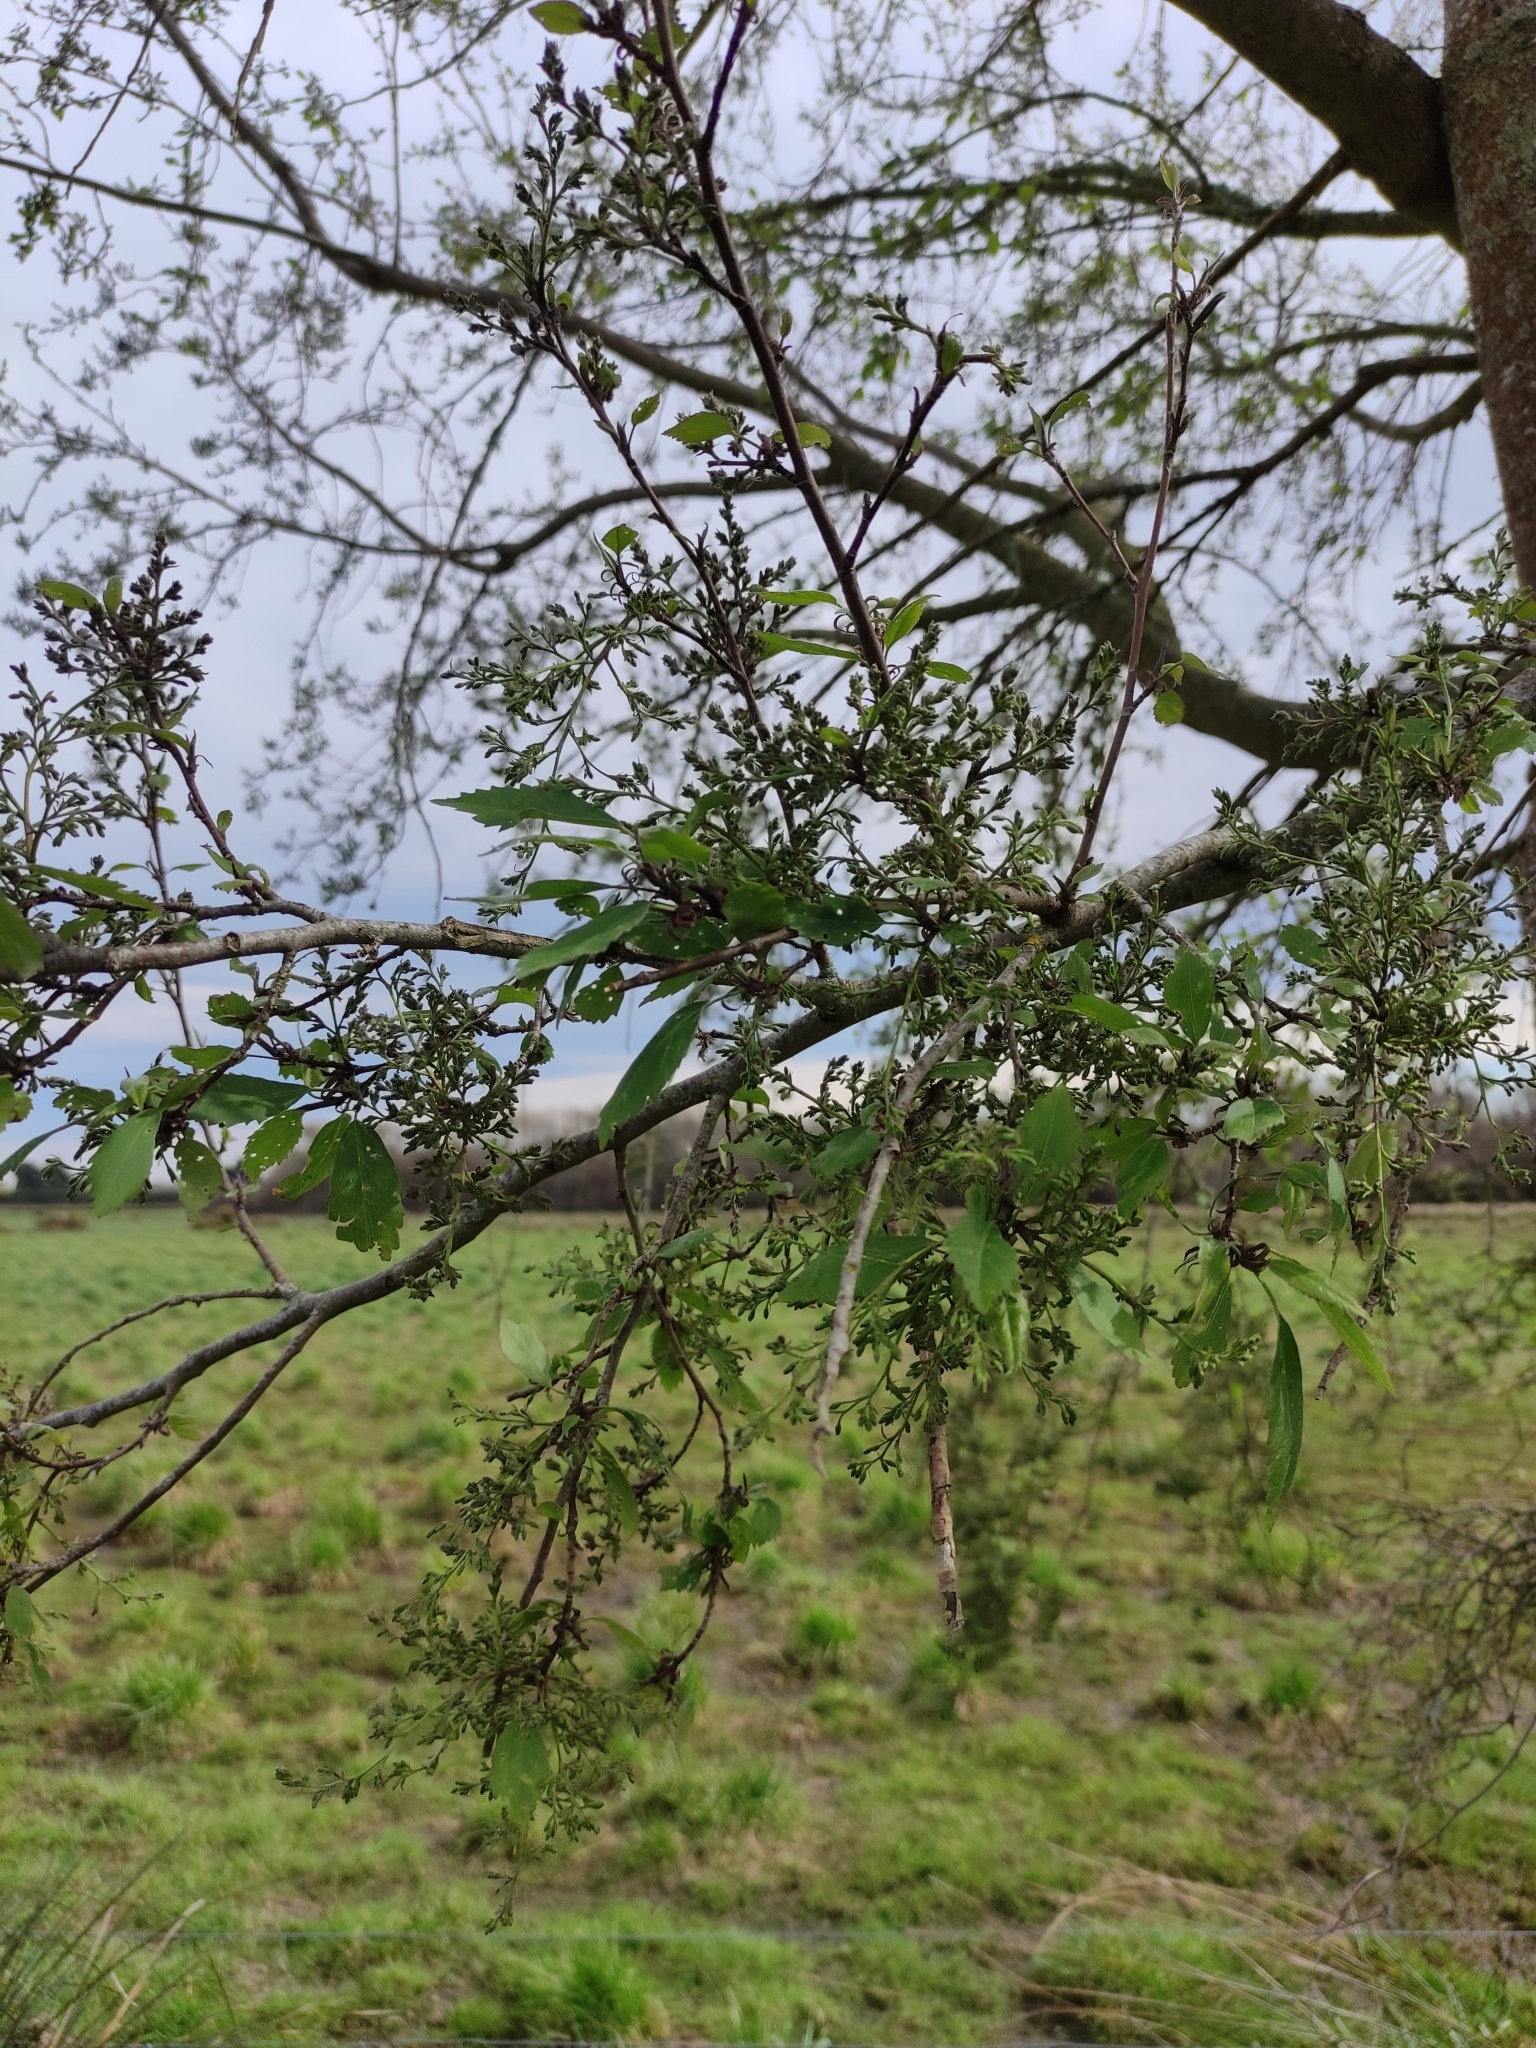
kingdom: Plantae
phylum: Tracheophyta
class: Magnoliopsida
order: Malvales
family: Malvaceae
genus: Plagianthus
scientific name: Plagianthus regius
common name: Manatu
